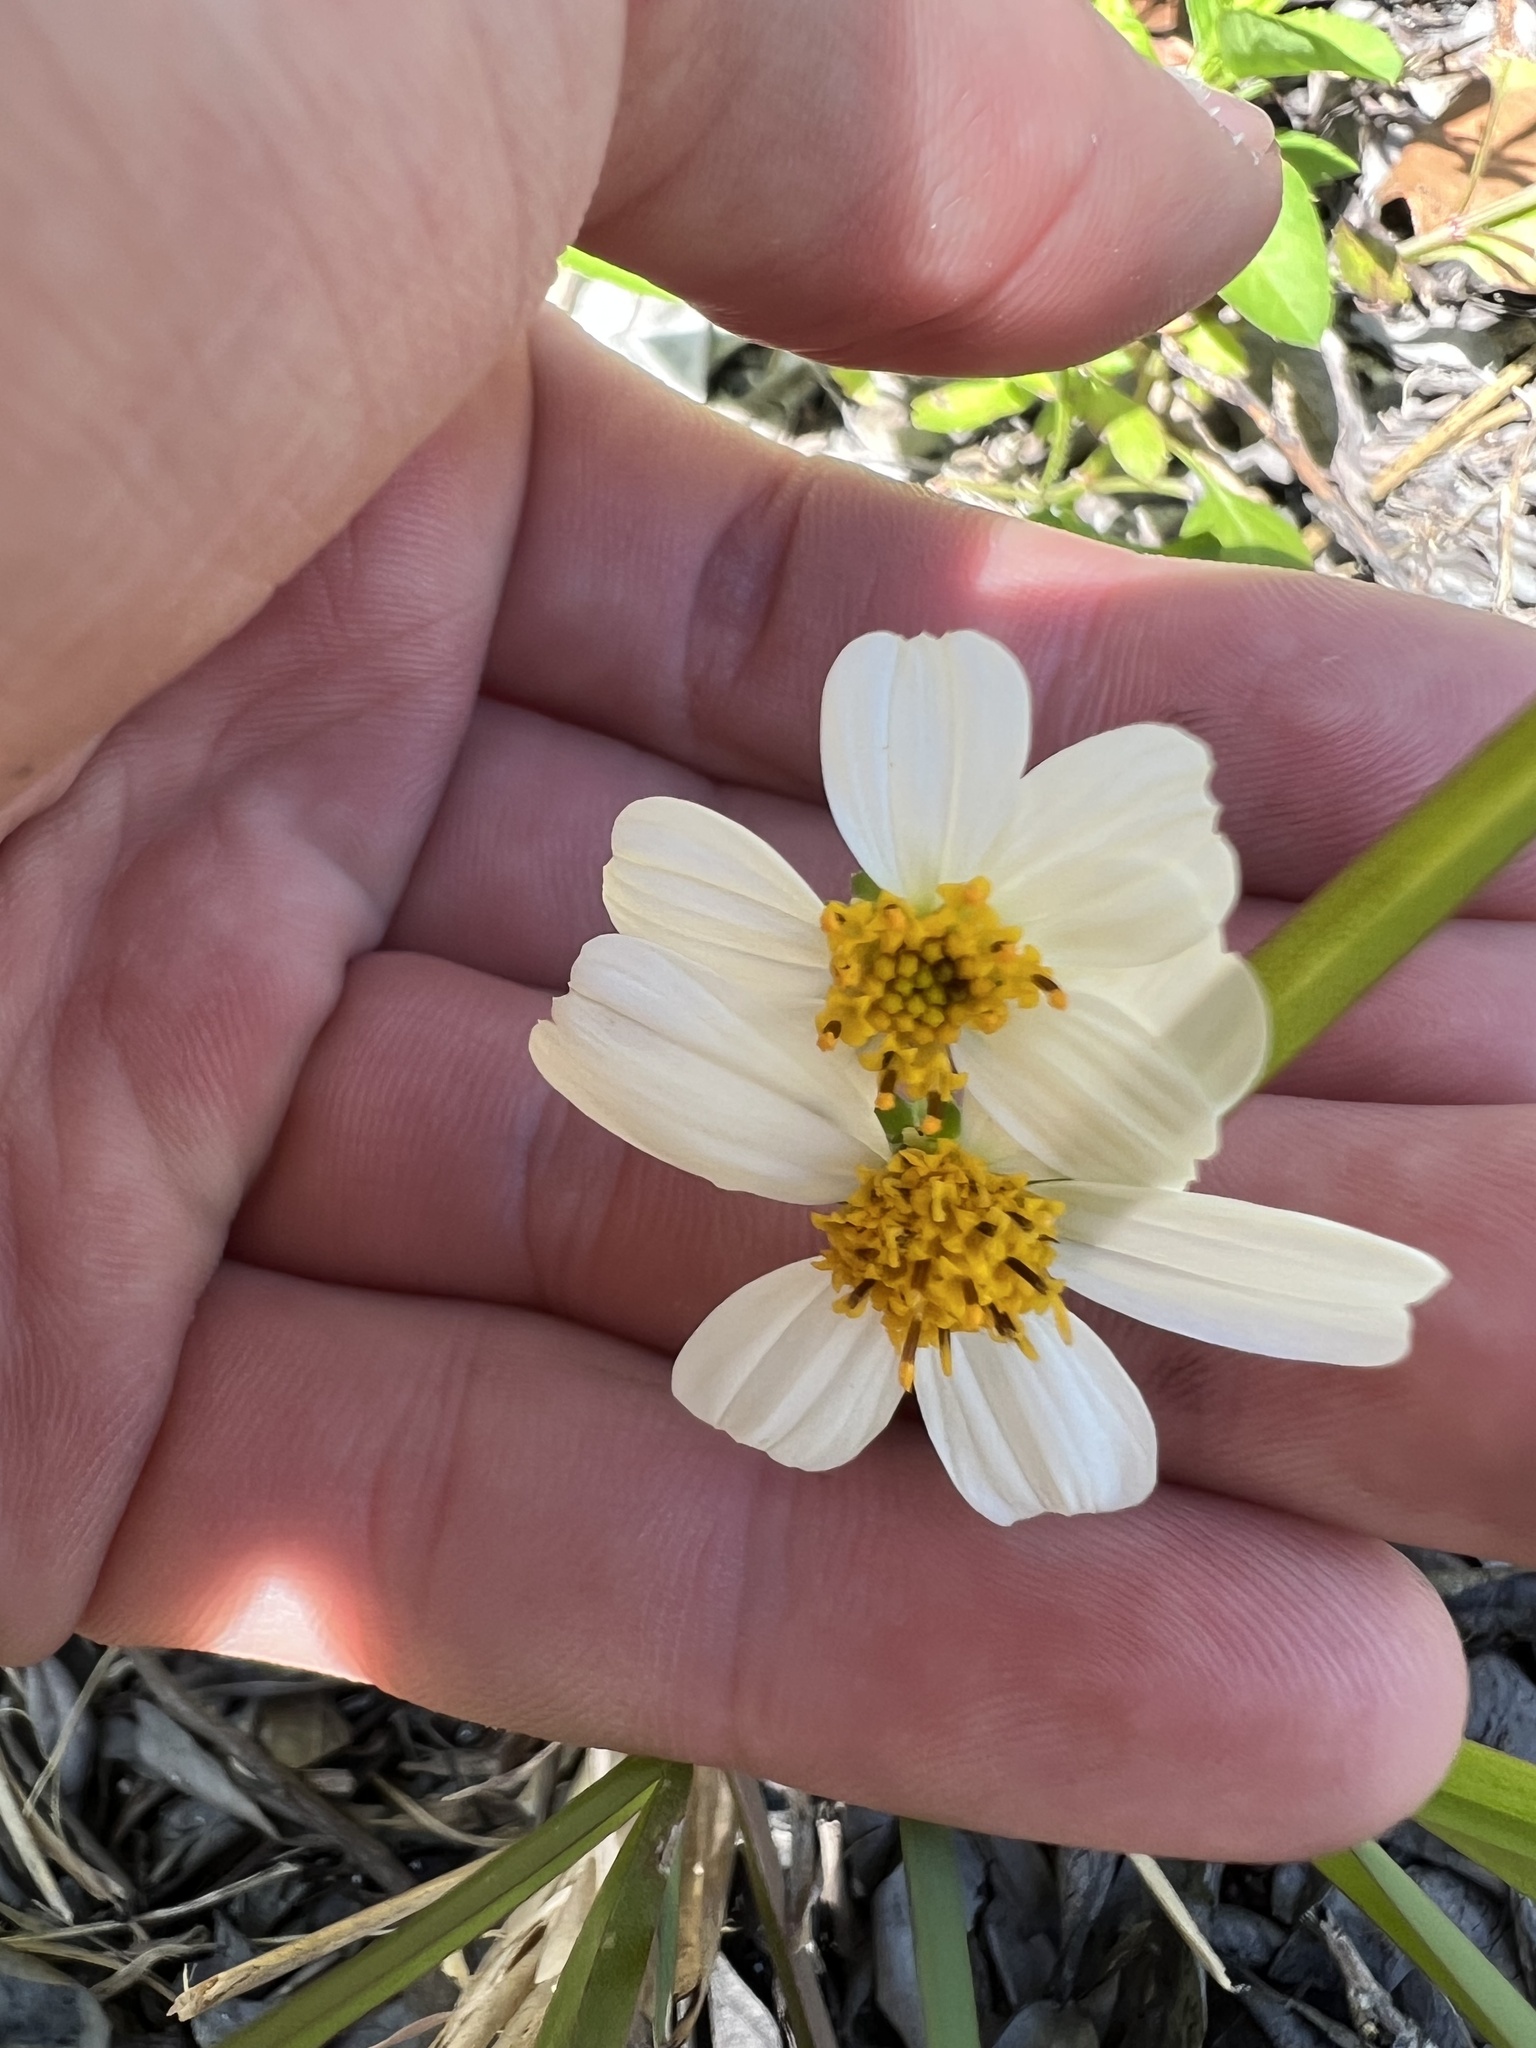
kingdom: Plantae
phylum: Tracheophyta
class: Magnoliopsida
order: Asterales
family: Asteraceae
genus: Bidens
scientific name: Bidens alba
